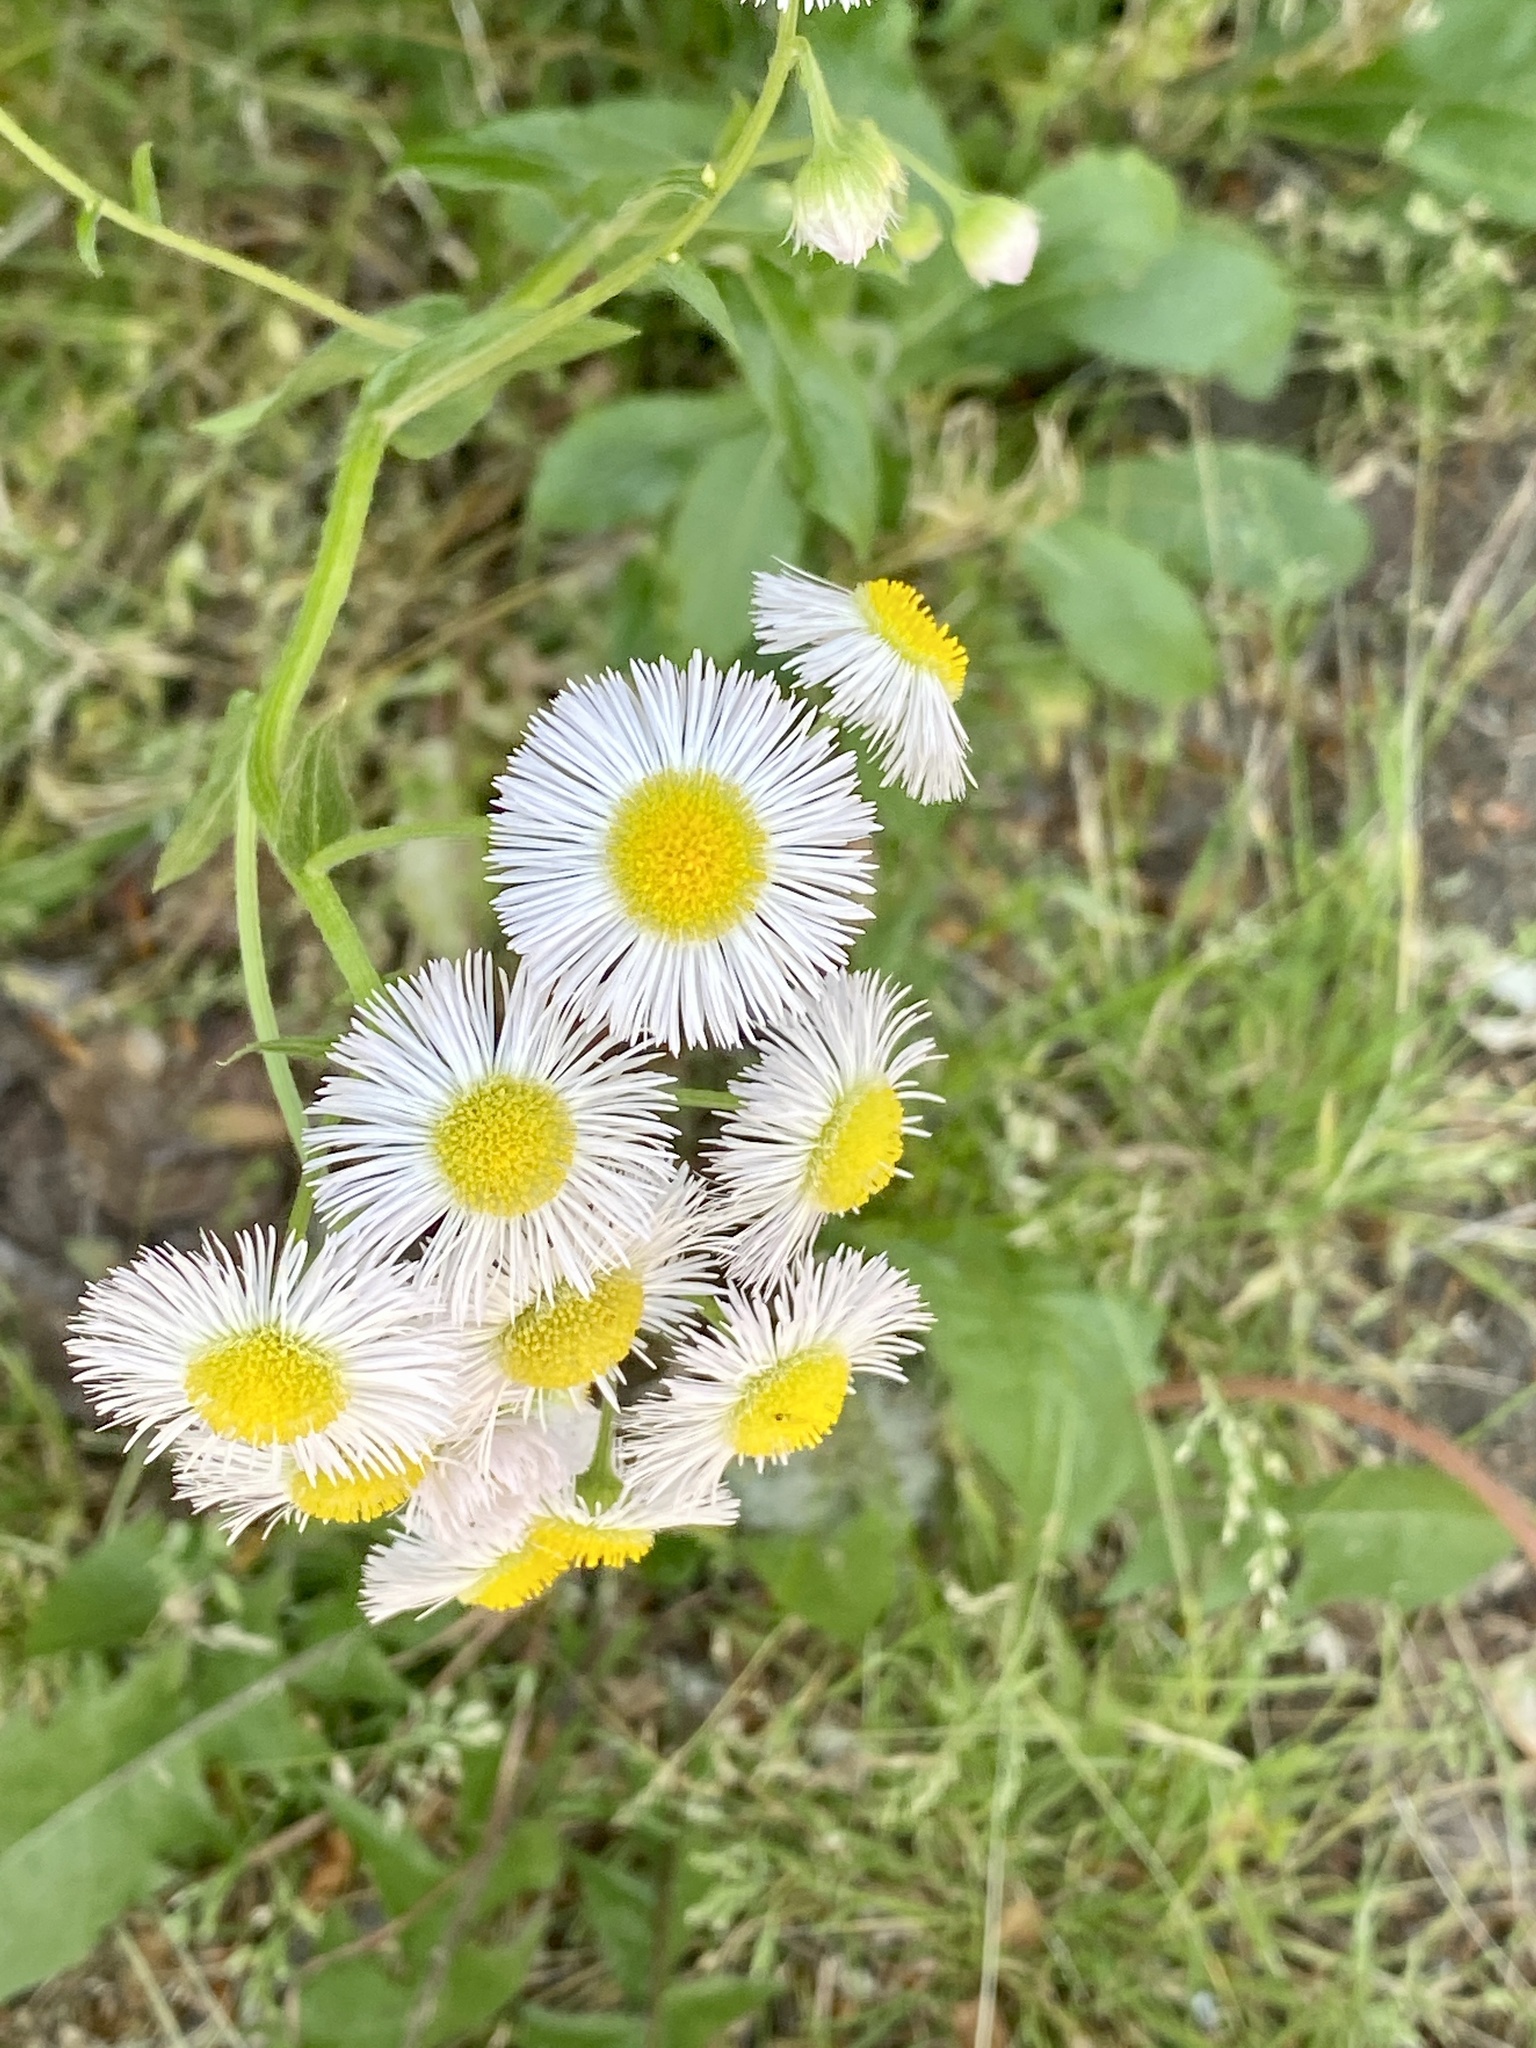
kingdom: Plantae
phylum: Tracheophyta
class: Magnoliopsida
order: Asterales
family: Asteraceae
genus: Erigeron
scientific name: Erigeron philadelphicus
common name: Robin's-plantain
